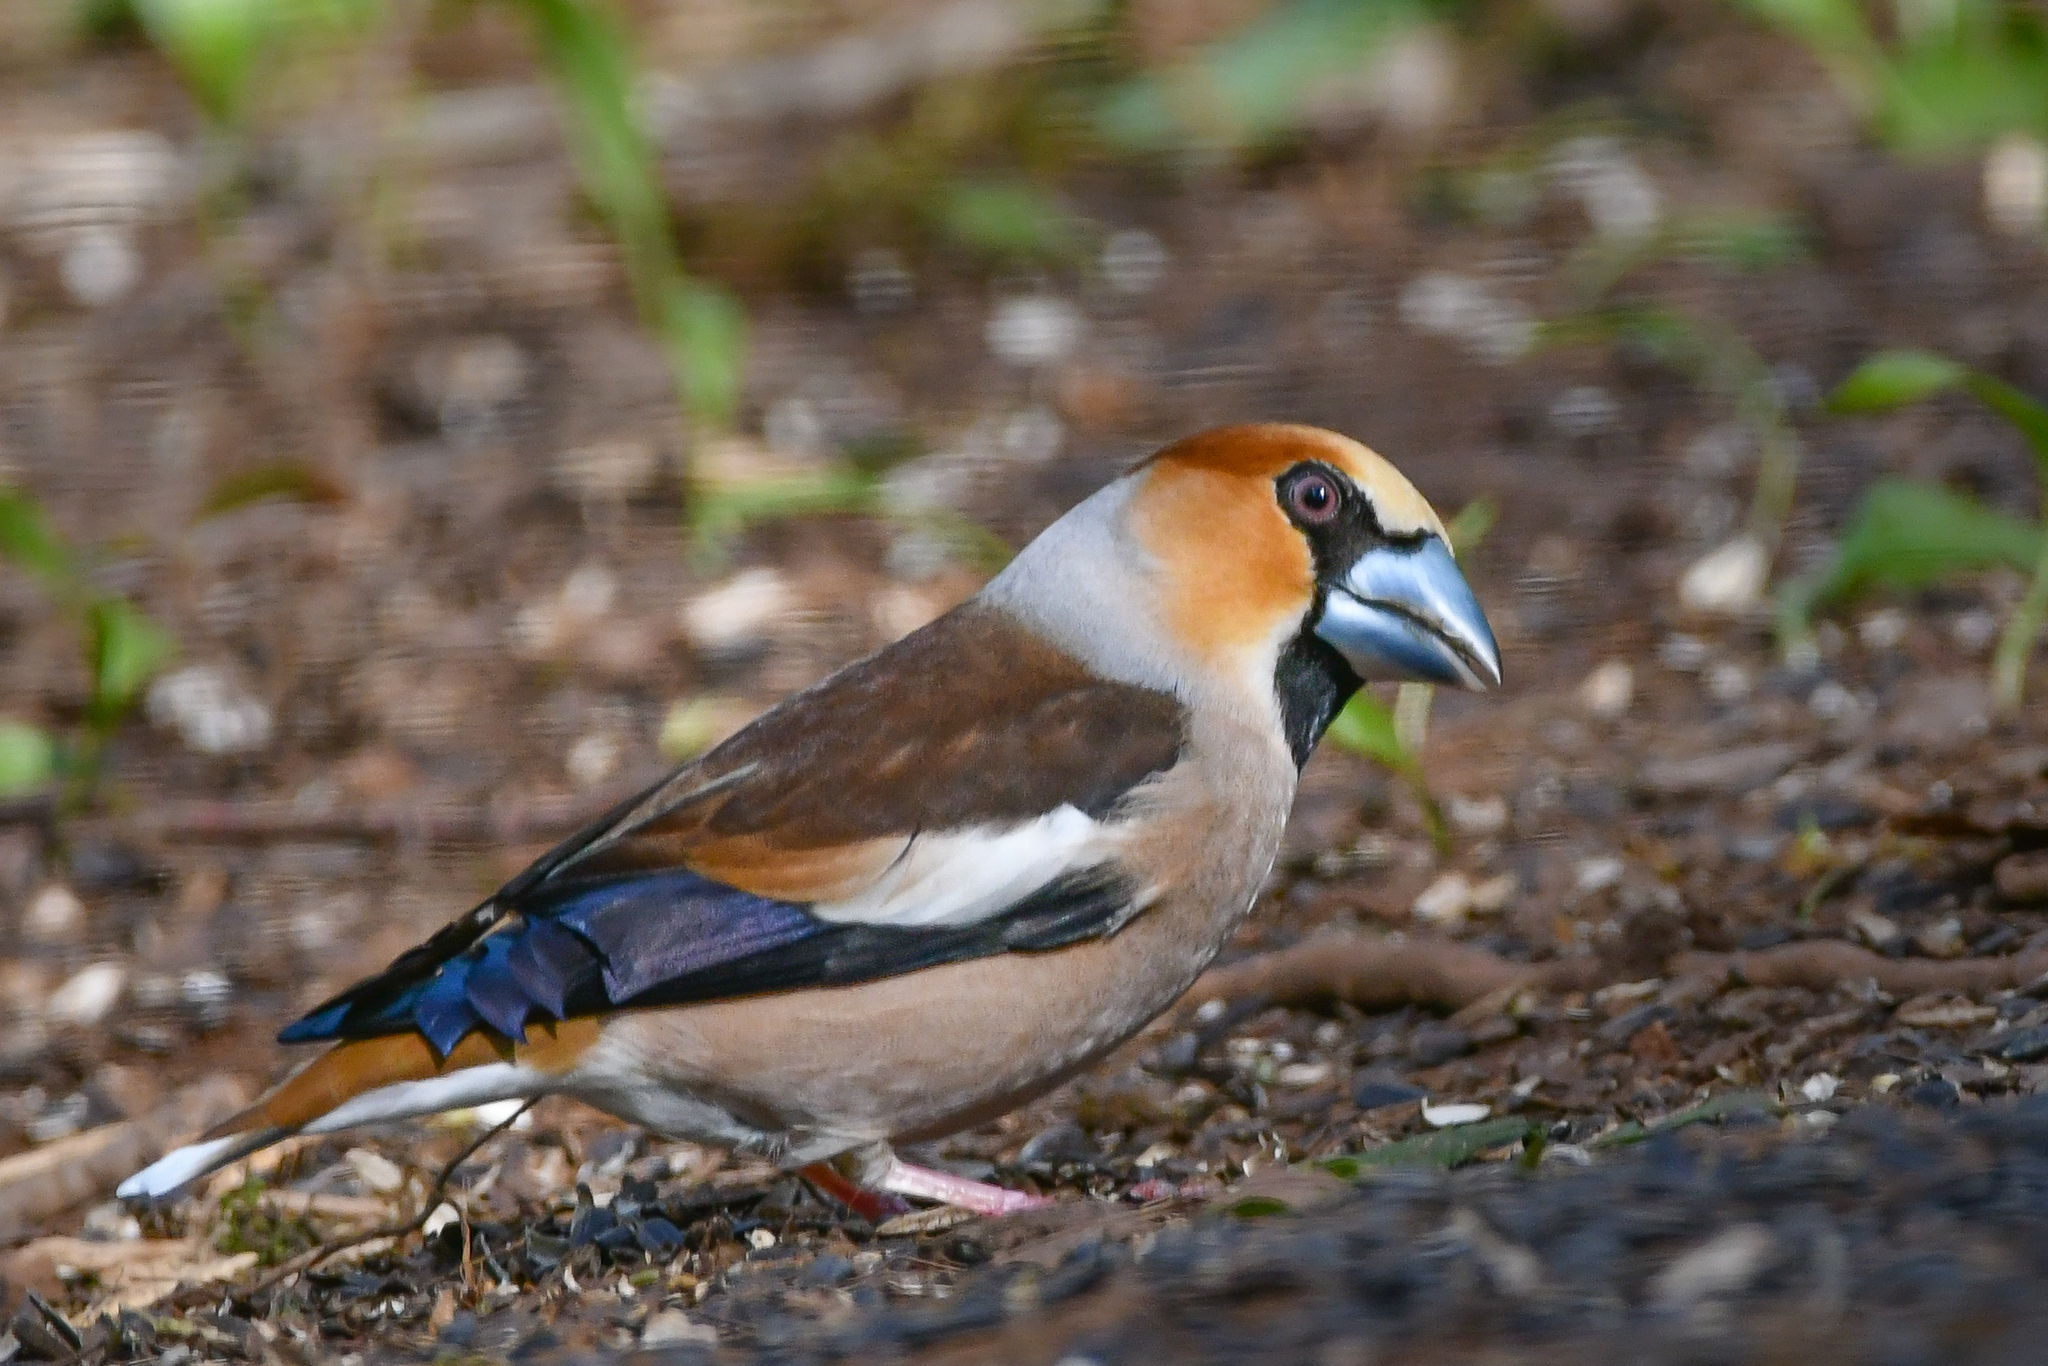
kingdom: Animalia
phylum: Chordata
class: Aves
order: Passeriformes
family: Fringillidae
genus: Coccothraustes
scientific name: Coccothraustes coccothraustes
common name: Hawfinch
